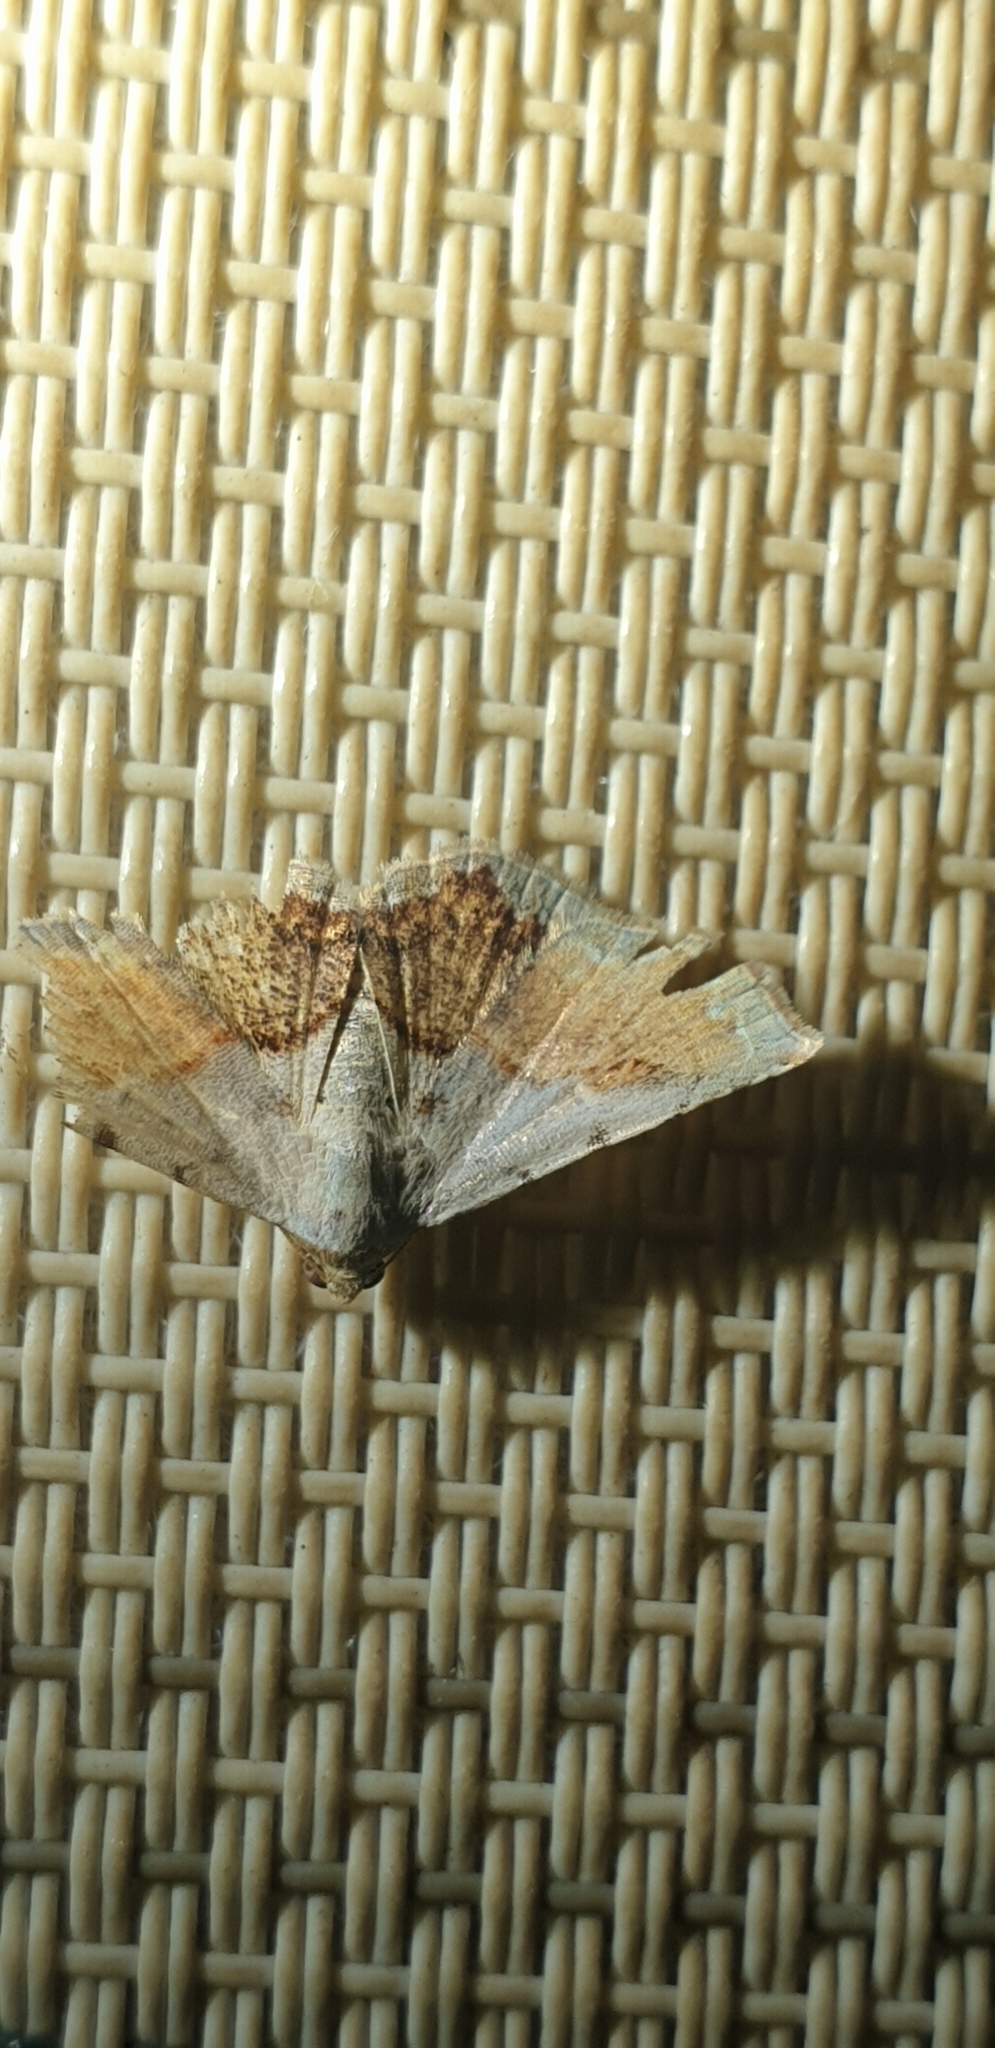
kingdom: Animalia
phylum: Arthropoda
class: Insecta
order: Lepidoptera
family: Noctuidae
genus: Eublemma
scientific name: Eublemma
